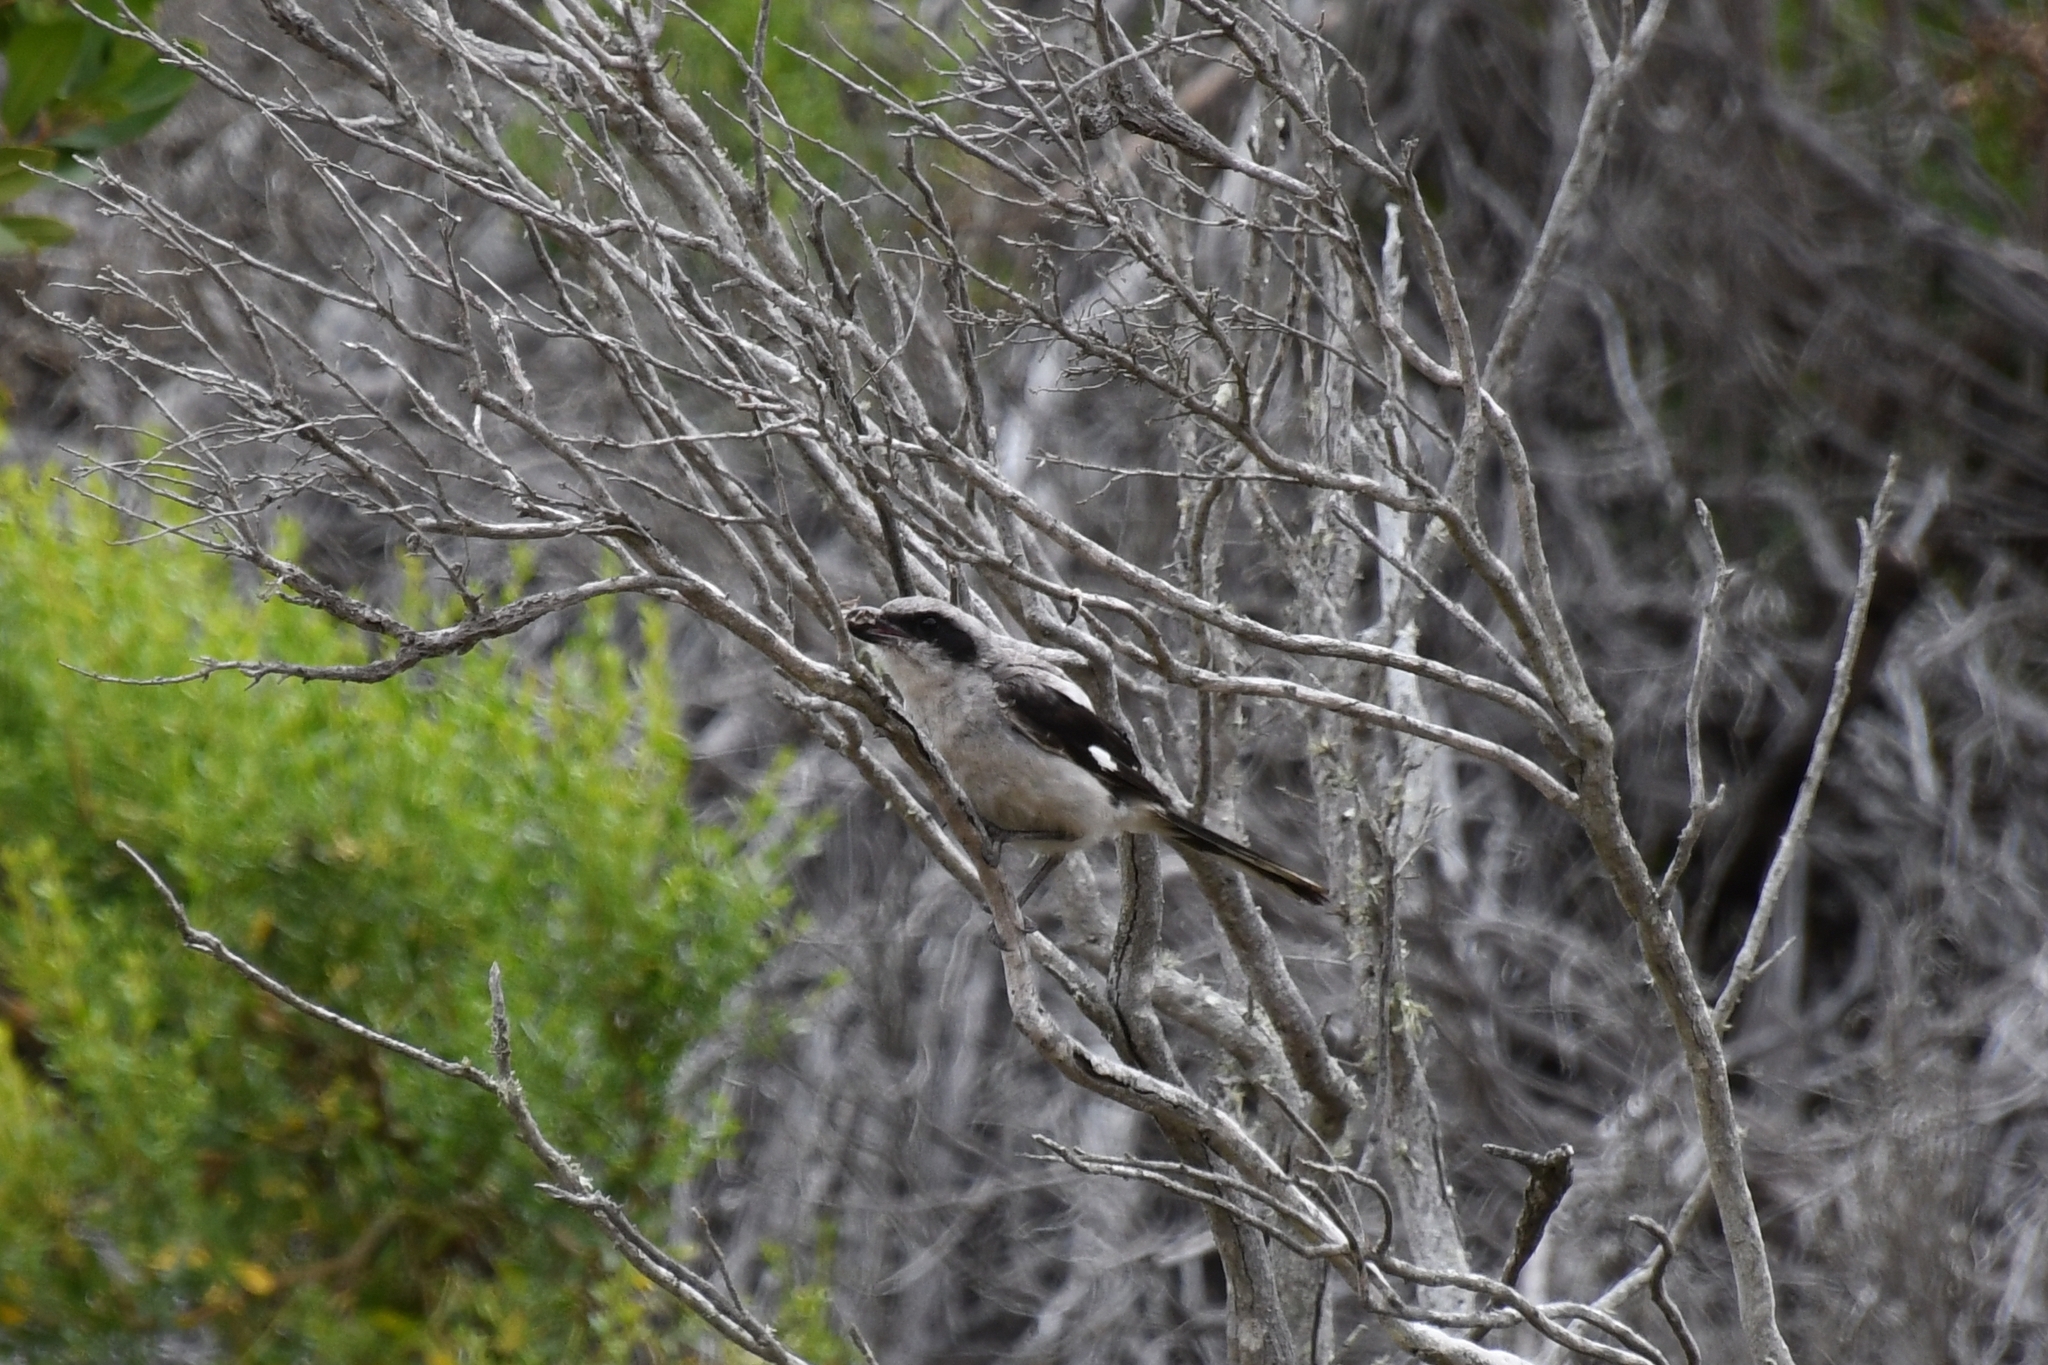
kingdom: Animalia
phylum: Chordata
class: Aves
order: Passeriformes
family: Laniidae
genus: Lanius
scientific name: Lanius ludovicianus
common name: Loggerhead shrike
